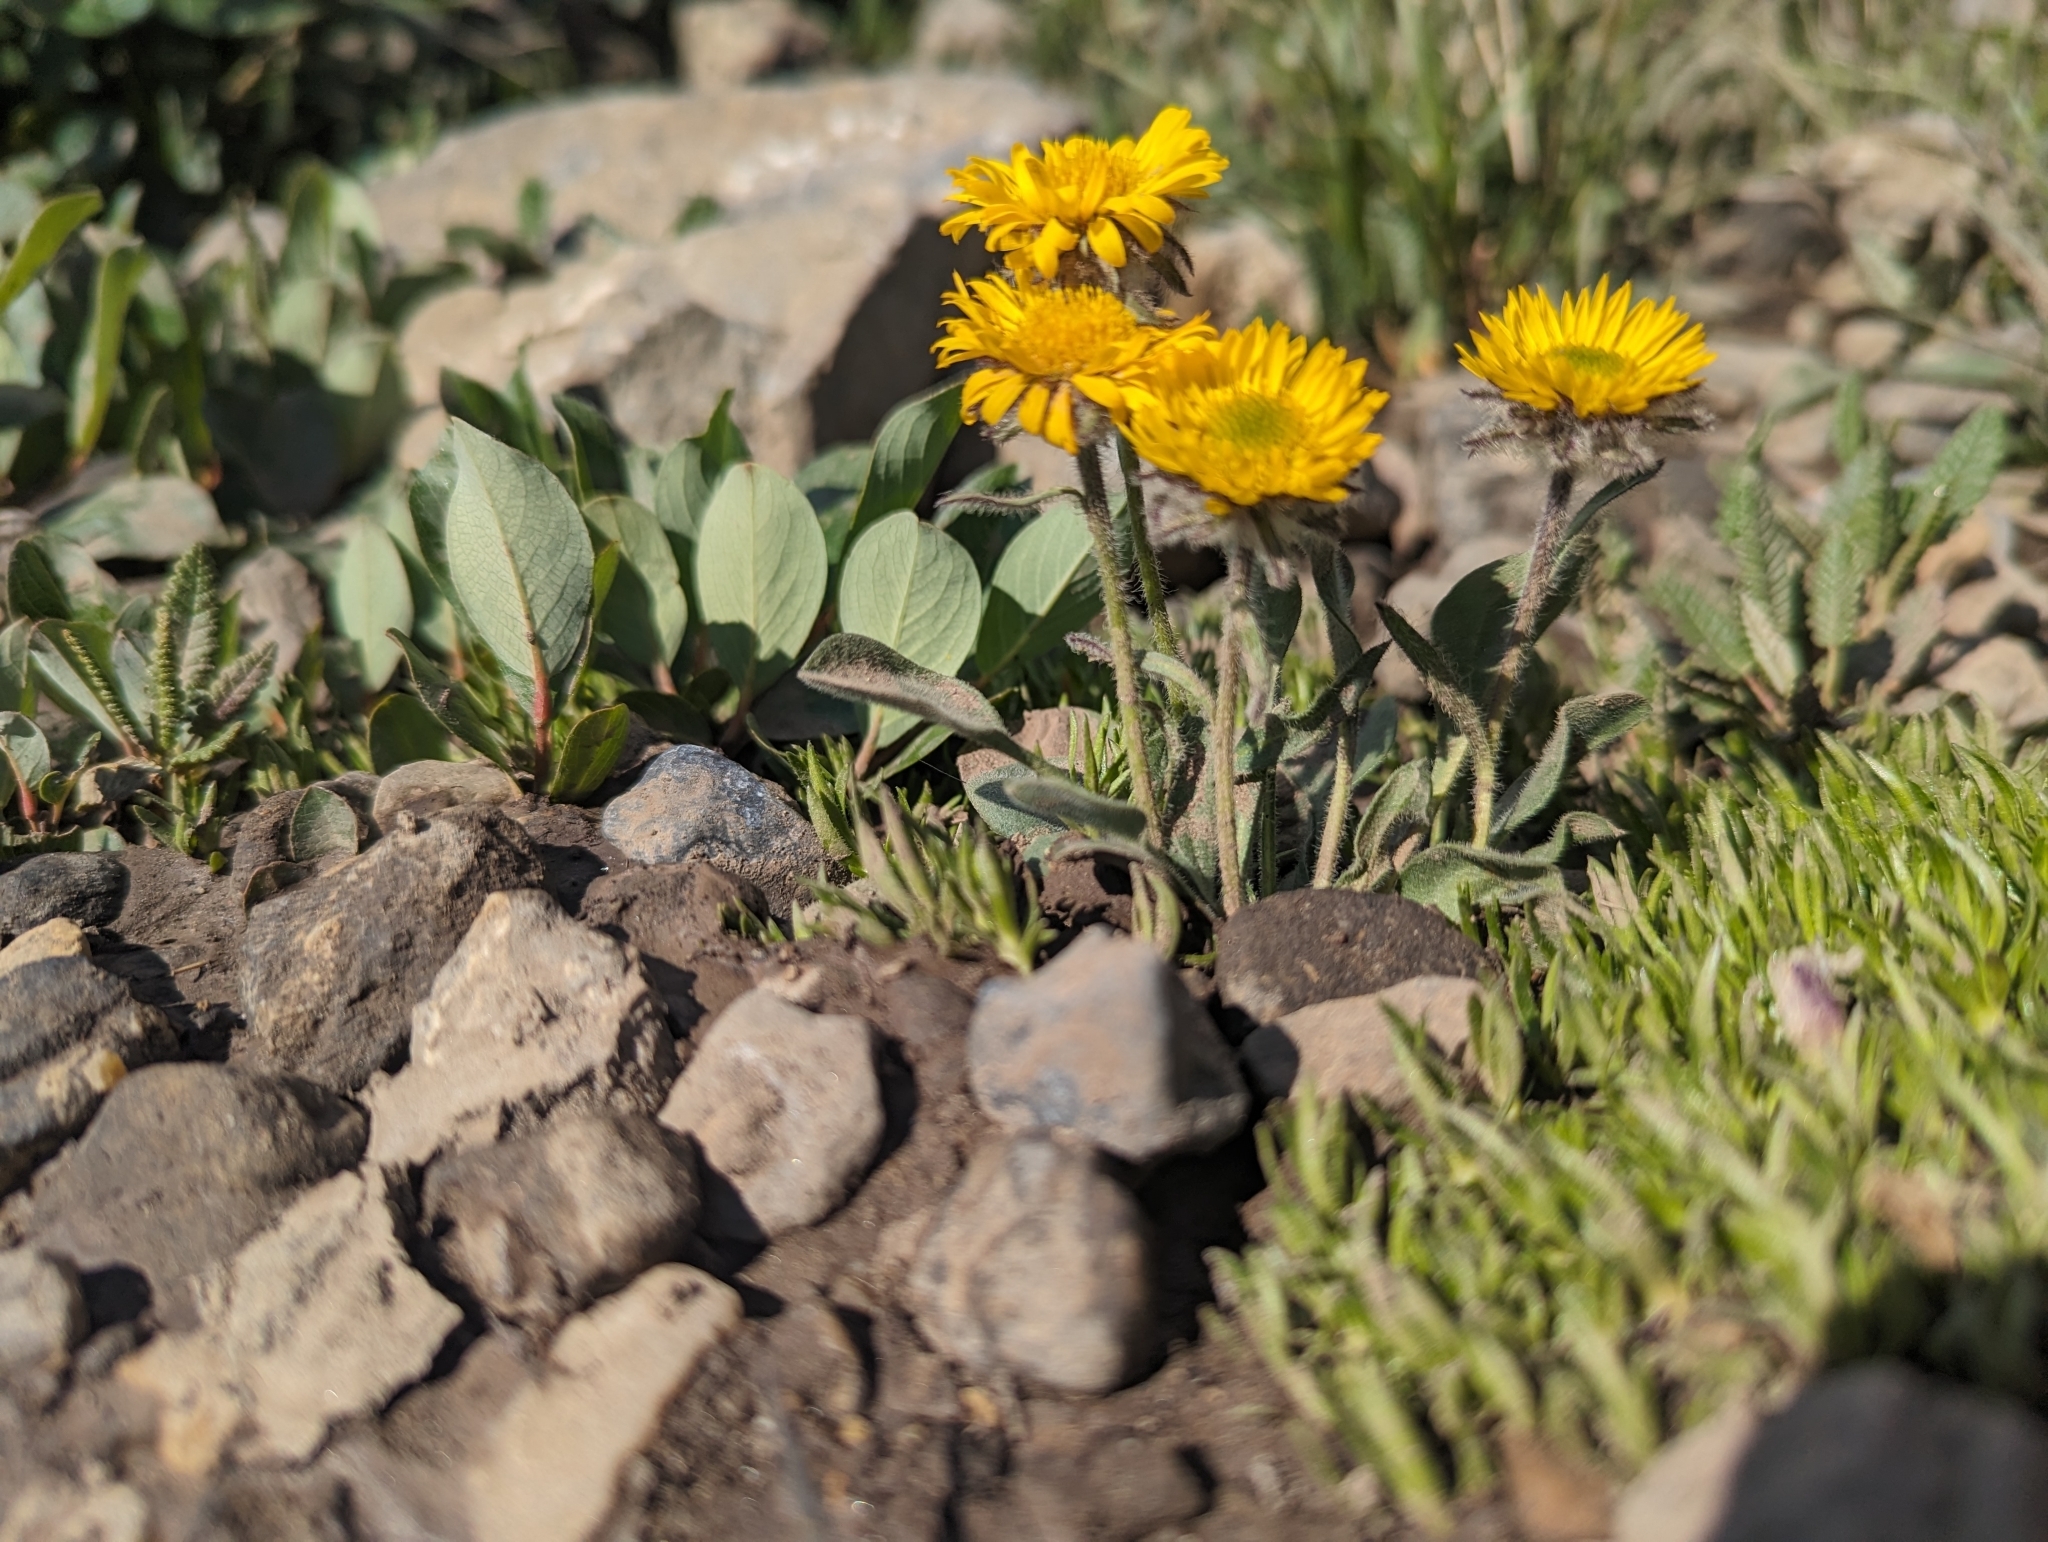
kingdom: Plantae
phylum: Tracheophyta
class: Magnoliopsida
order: Asterales
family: Asteraceae
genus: Erigeron
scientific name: Erigeron aureus
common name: Alpine yellow fleabane
